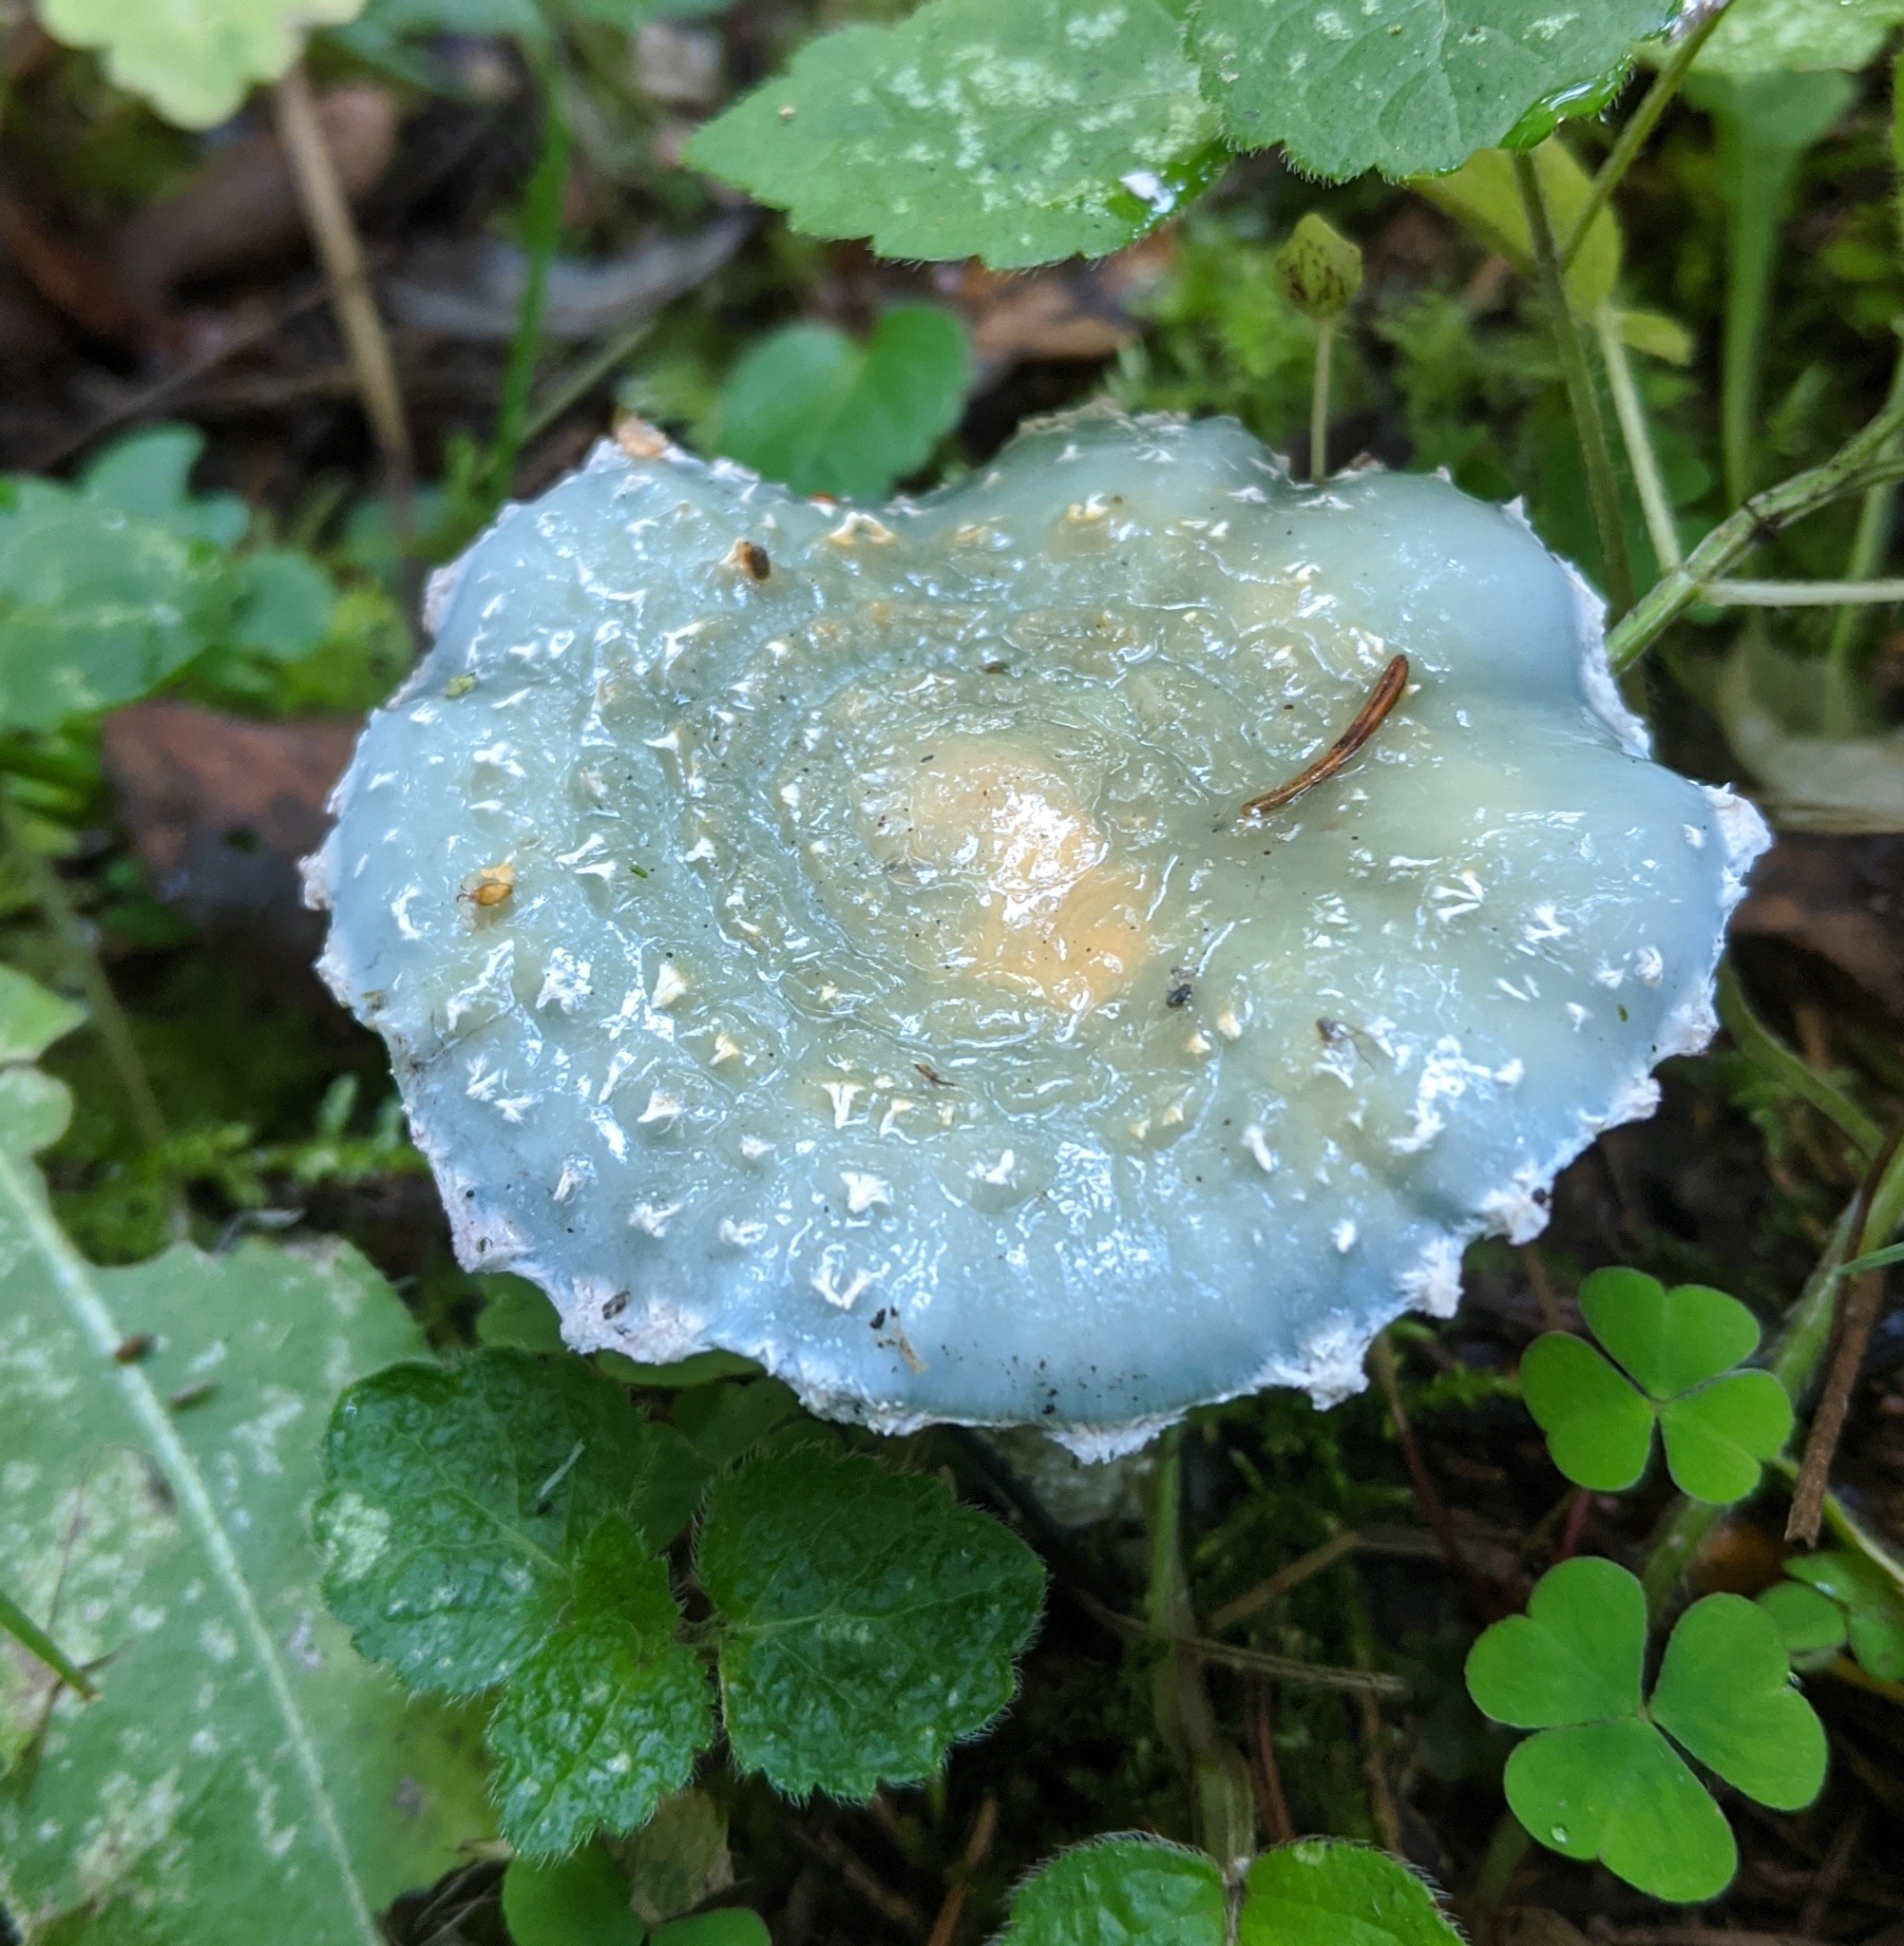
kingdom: Fungi
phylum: Basidiomycota
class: Agaricomycetes
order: Agaricales
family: Strophariaceae
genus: Stropharia
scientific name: Stropharia aeruginosa
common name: Verdigris roundhead
